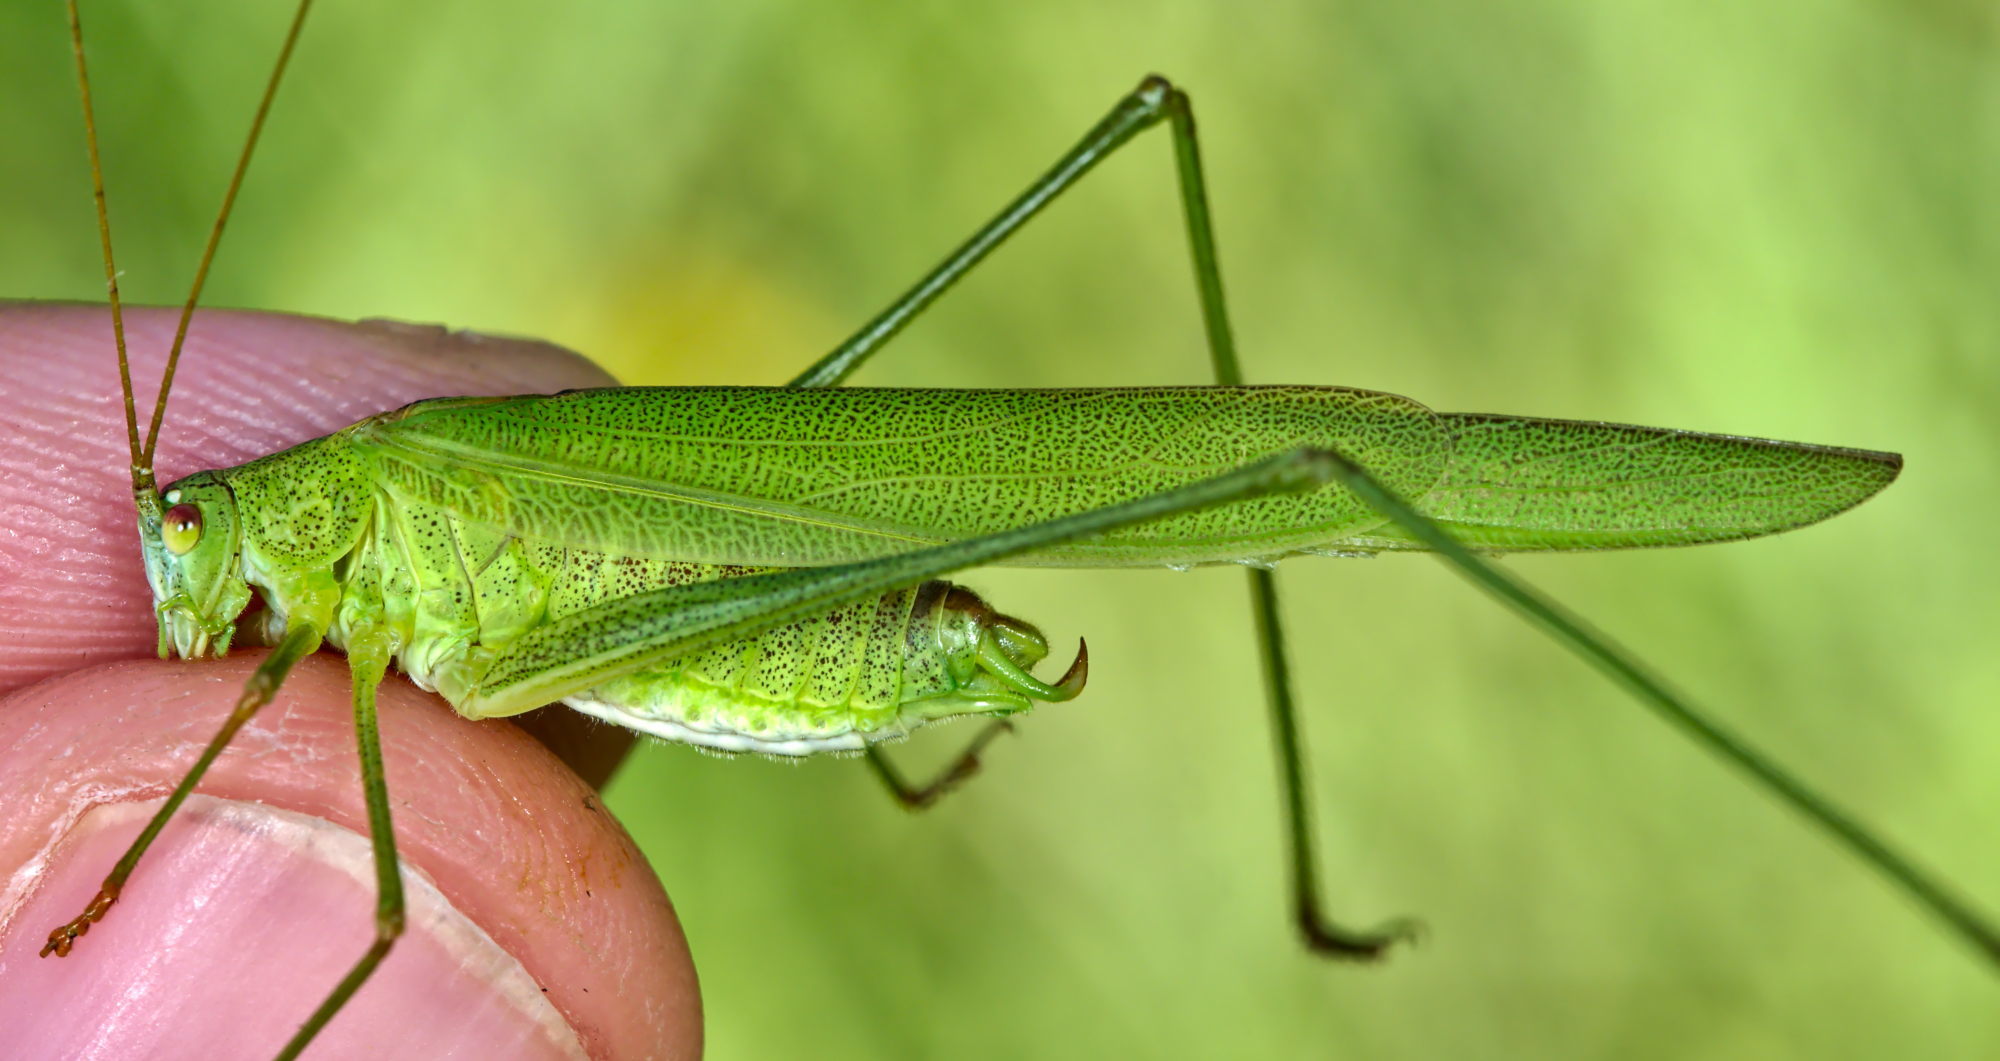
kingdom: Animalia
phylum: Arthropoda
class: Insecta
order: Orthoptera
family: Tettigoniidae
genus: Phaneroptera
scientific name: Phaneroptera falcata
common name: Sickle-bearing bush-cricket
